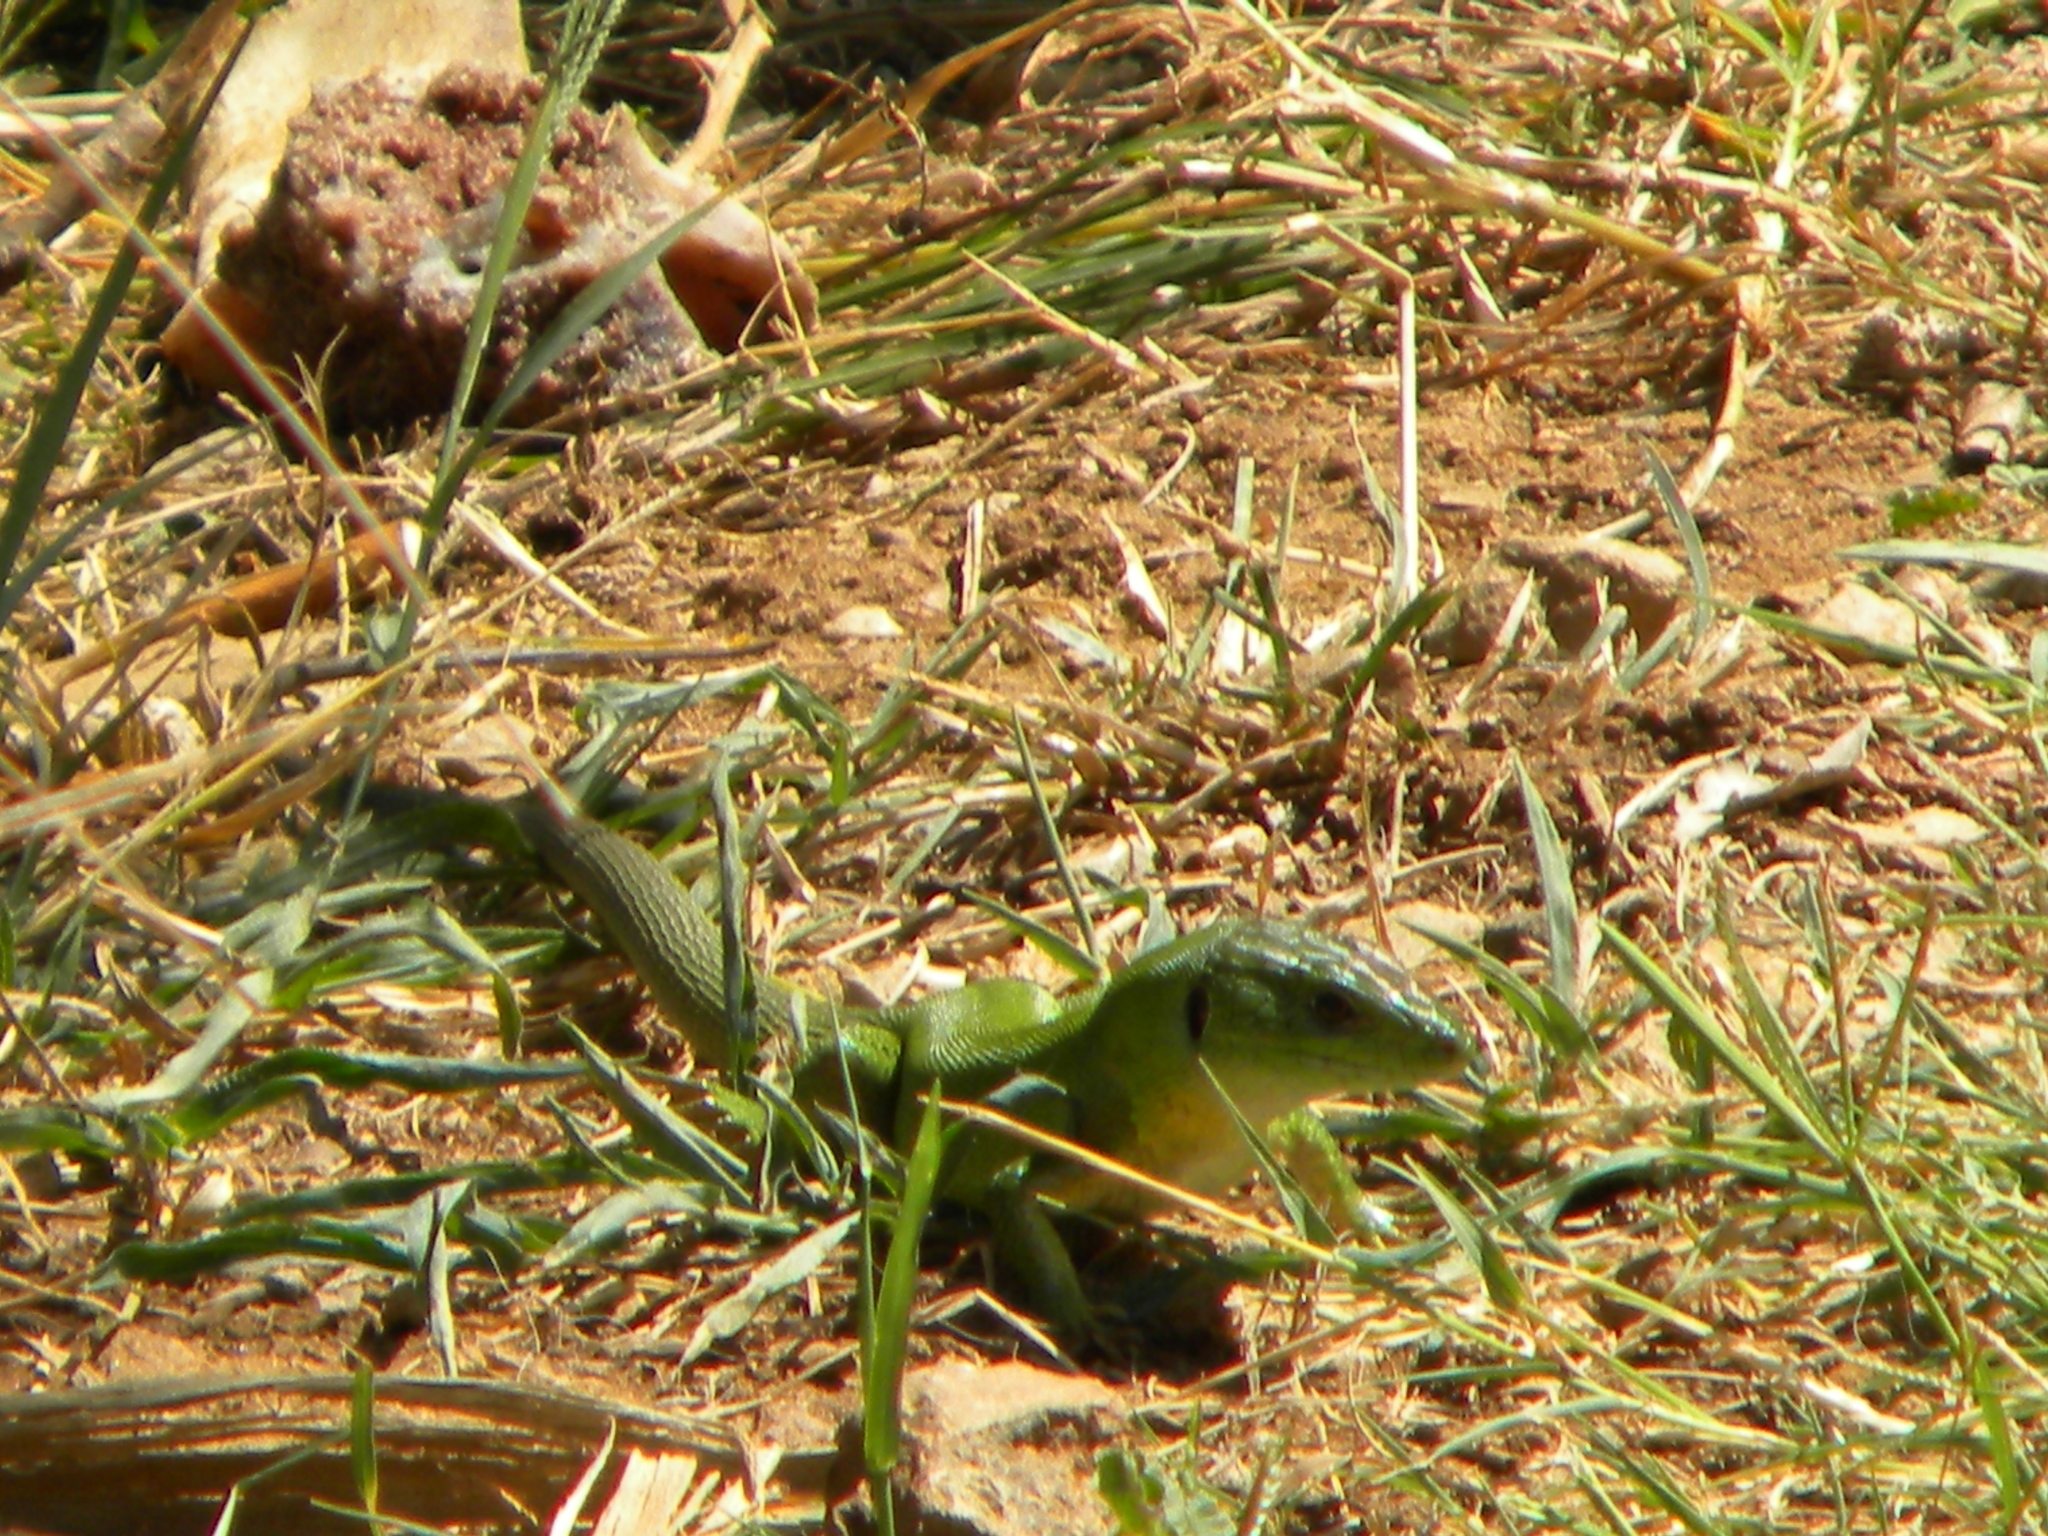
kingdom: Animalia
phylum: Chordata
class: Squamata
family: Lacertidae
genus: Lacerta
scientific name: Lacerta trilineata
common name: Balkan green lizard
